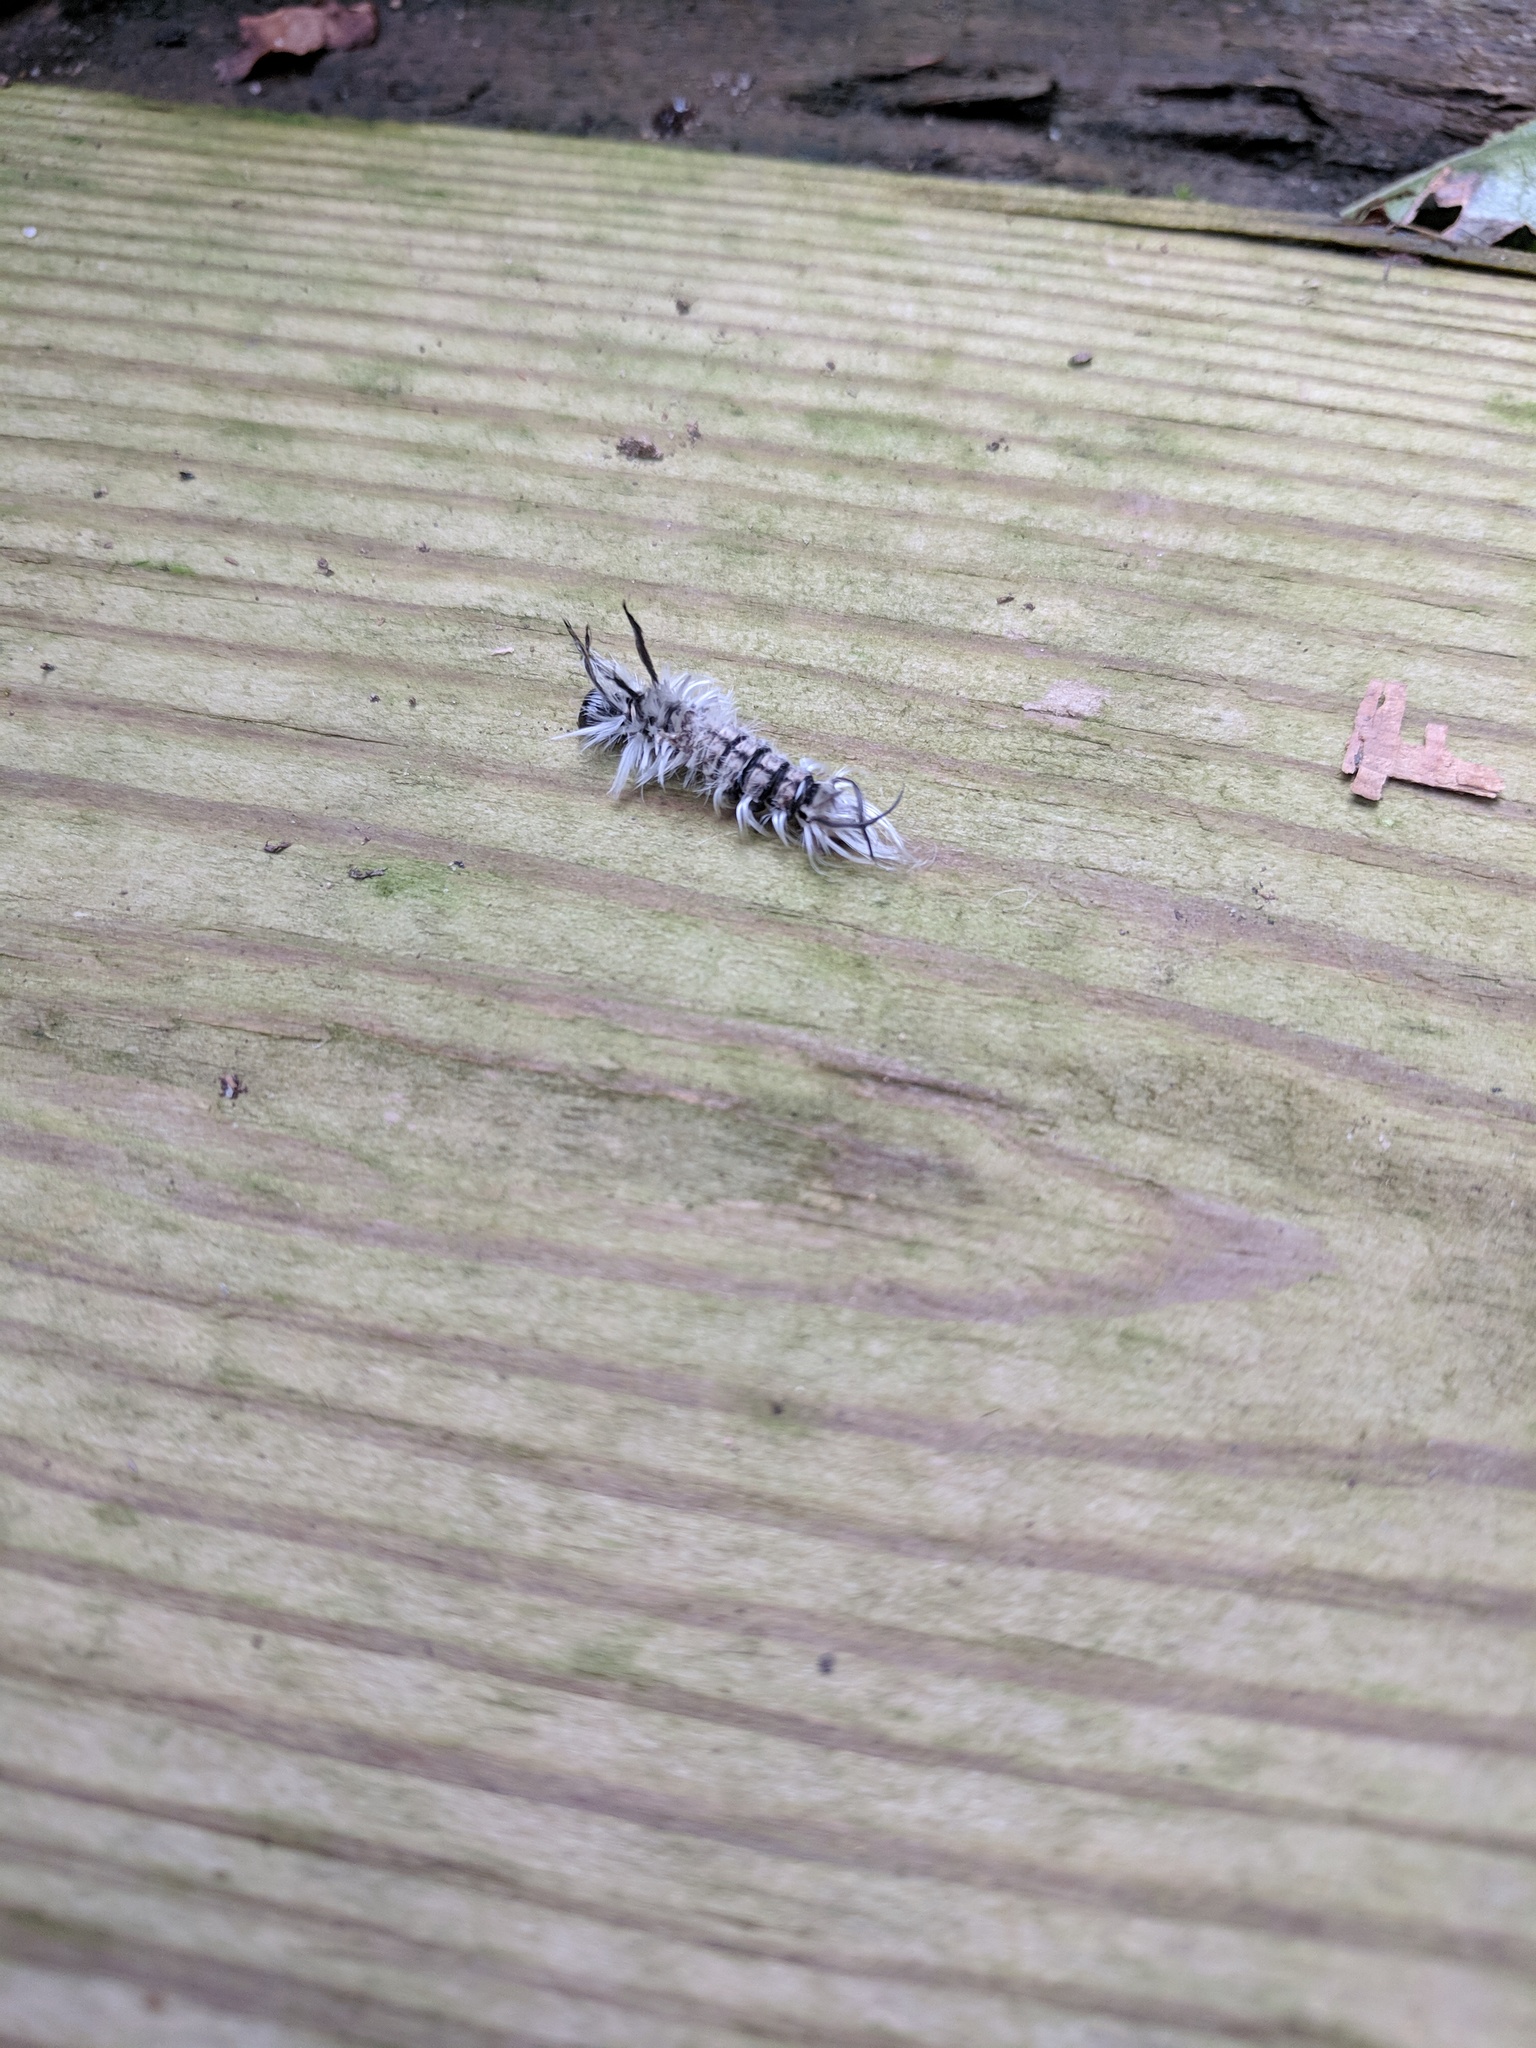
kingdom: Animalia
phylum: Arthropoda
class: Insecta
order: Lepidoptera
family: Erebidae
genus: Halysidota
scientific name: Halysidota tessellaris
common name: Banded tussock moth
